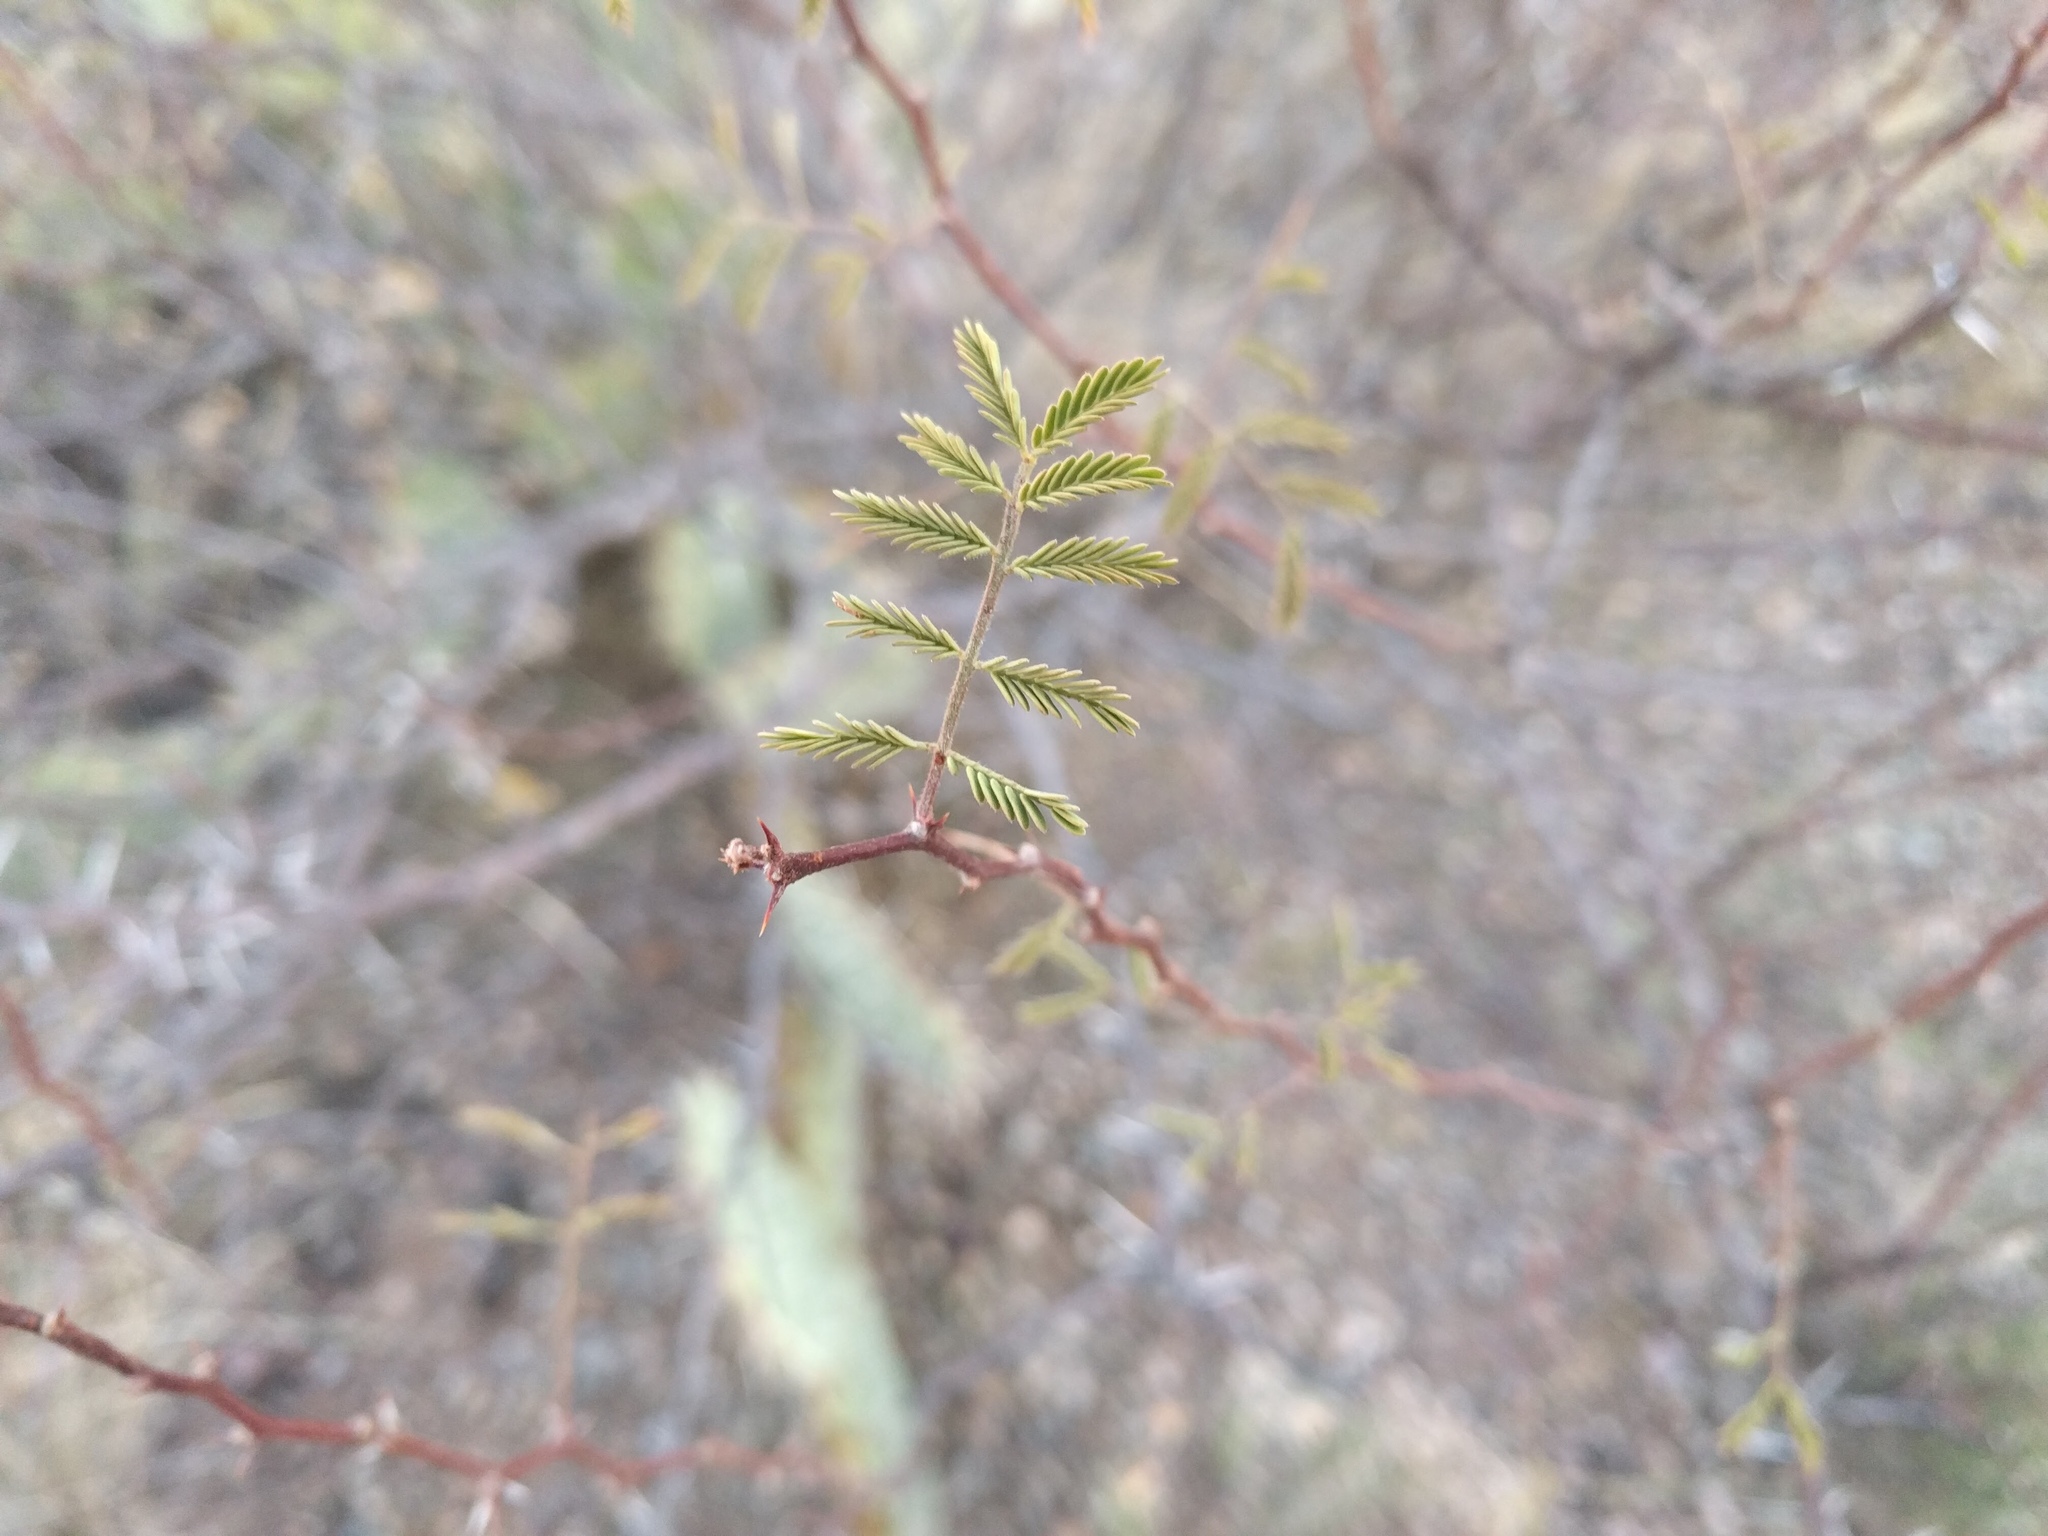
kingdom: Plantae
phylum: Tracheophyta
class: Magnoliopsida
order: Fabales
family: Fabaceae
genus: Vachellia
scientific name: Vachellia constricta
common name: Mescat acacia
